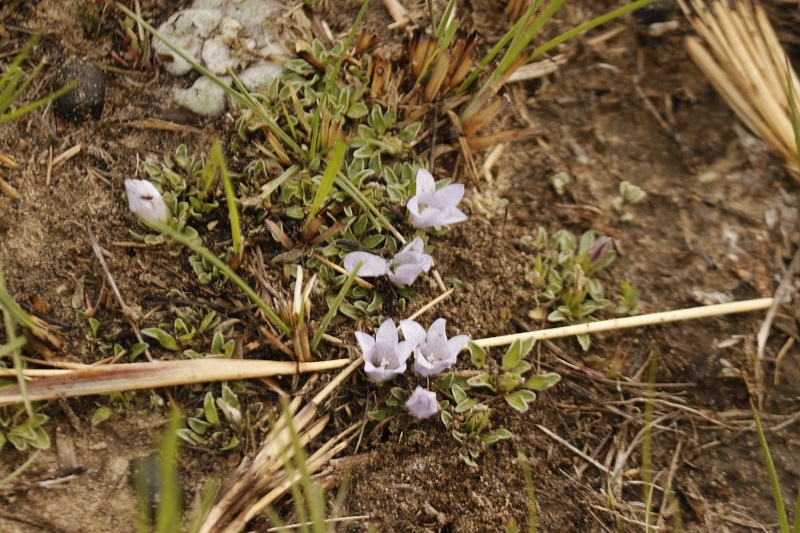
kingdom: Plantae
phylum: Tracheophyta
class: Magnoliopsida
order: Asterales
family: Campanulaceae
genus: Craterocapsa
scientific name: Craterocapsa tarsodes
